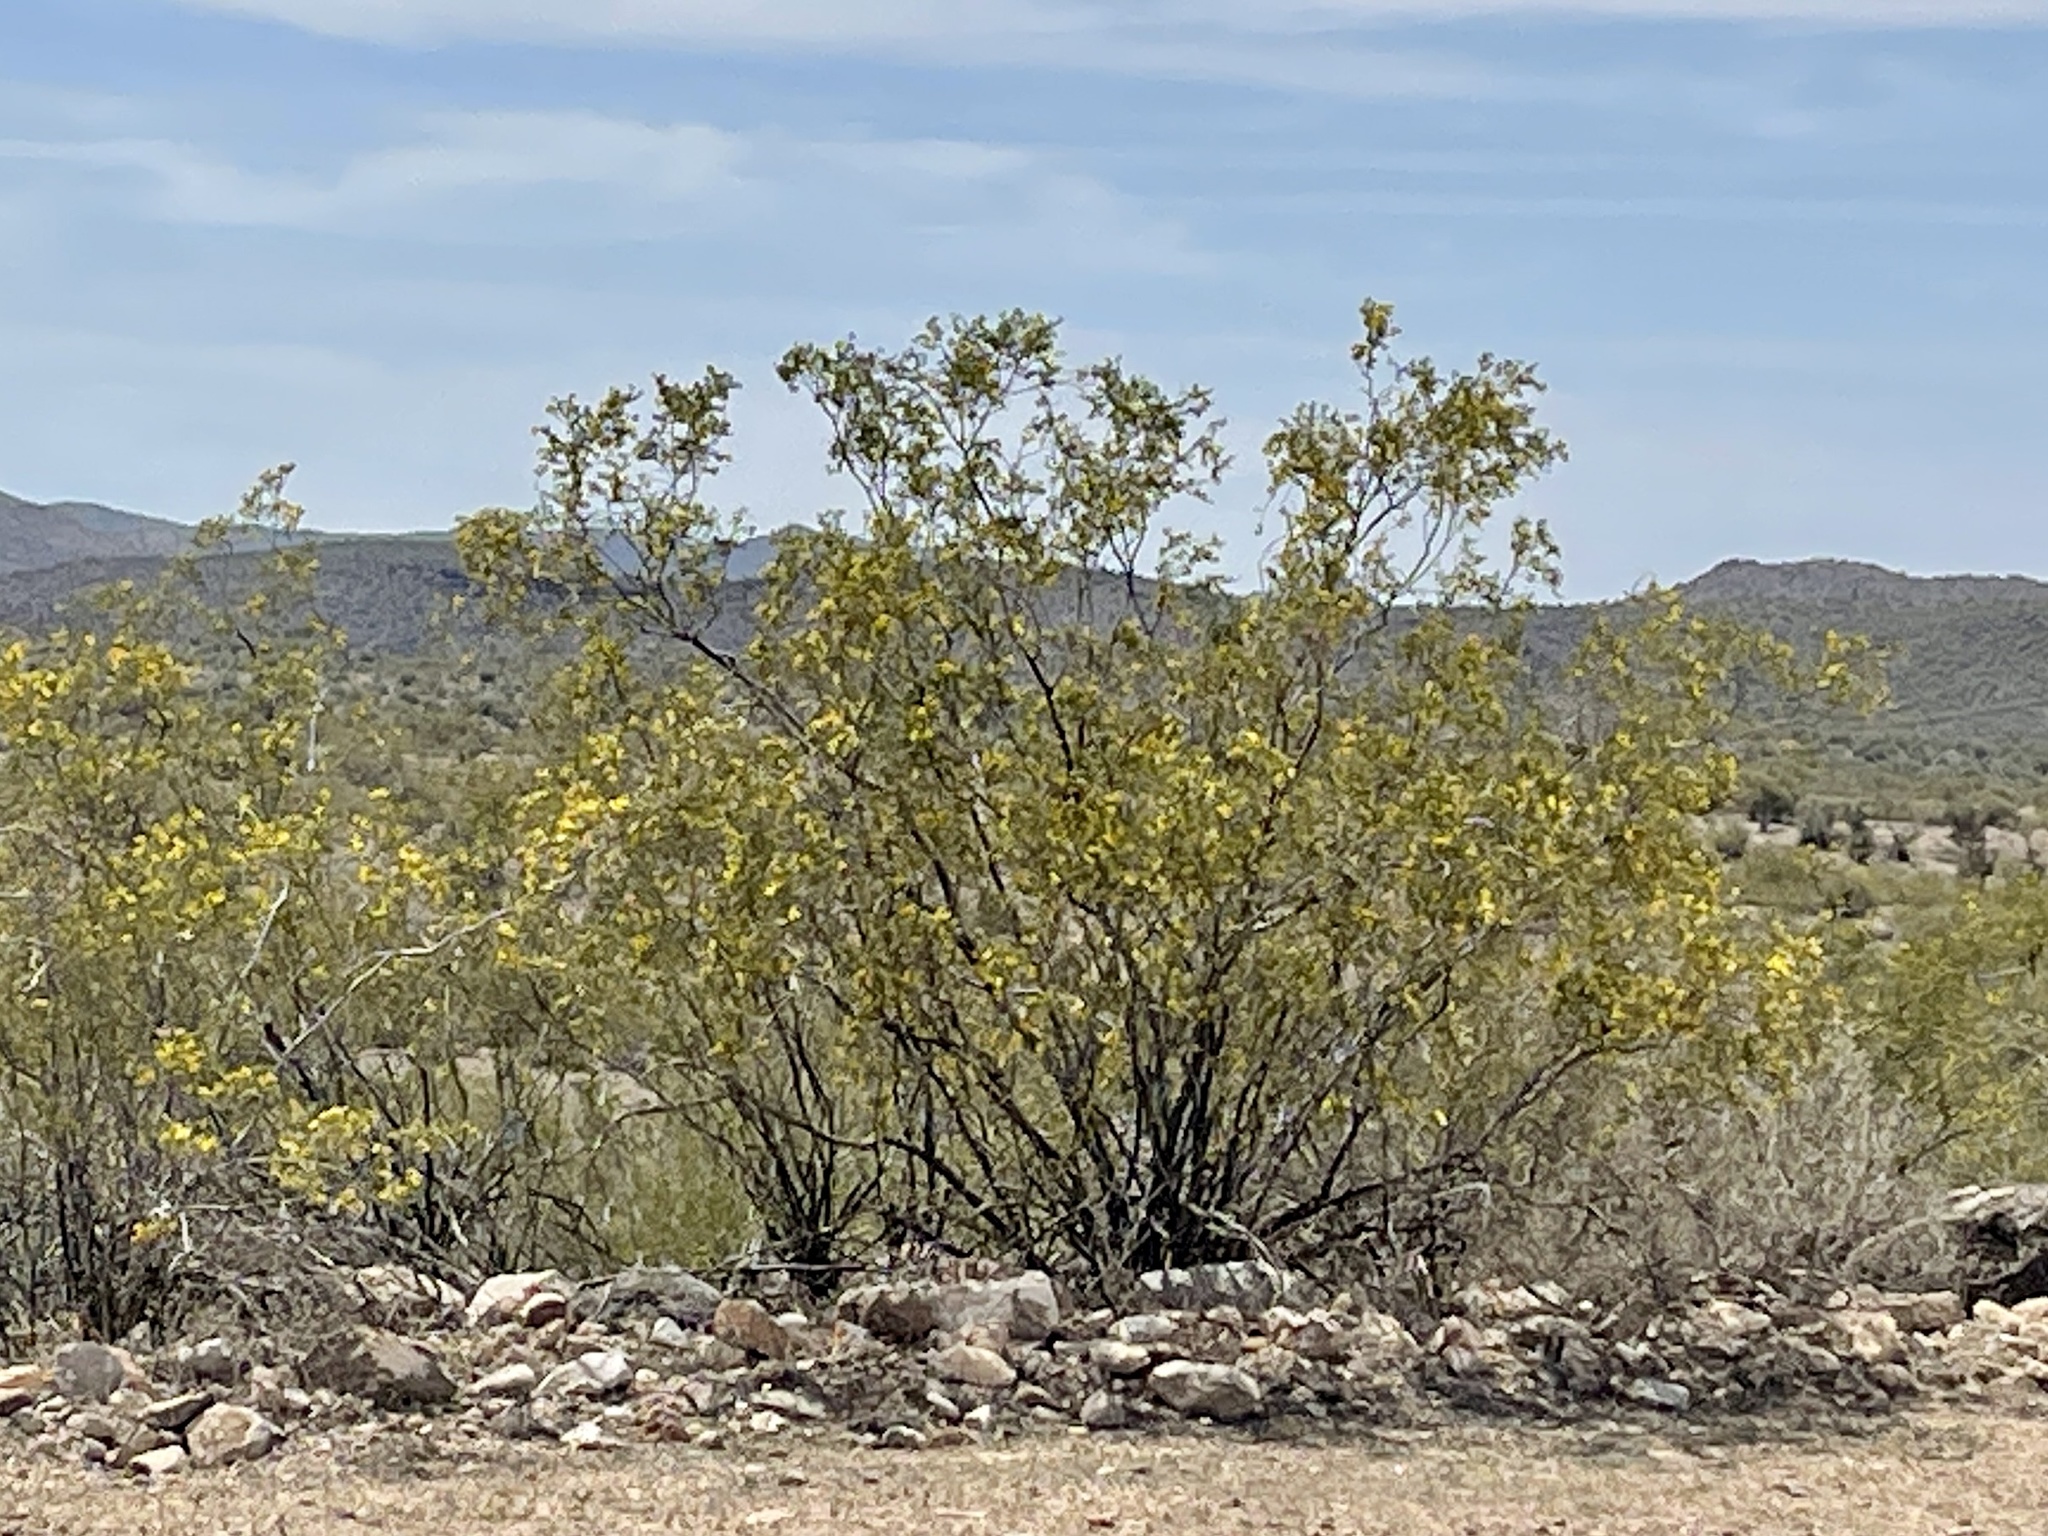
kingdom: Plantae
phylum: Tracheophyta
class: Magnoliopsida
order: Zygophyllales
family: Zygophyllaceae
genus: Larrea
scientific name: Larrea tridentata
